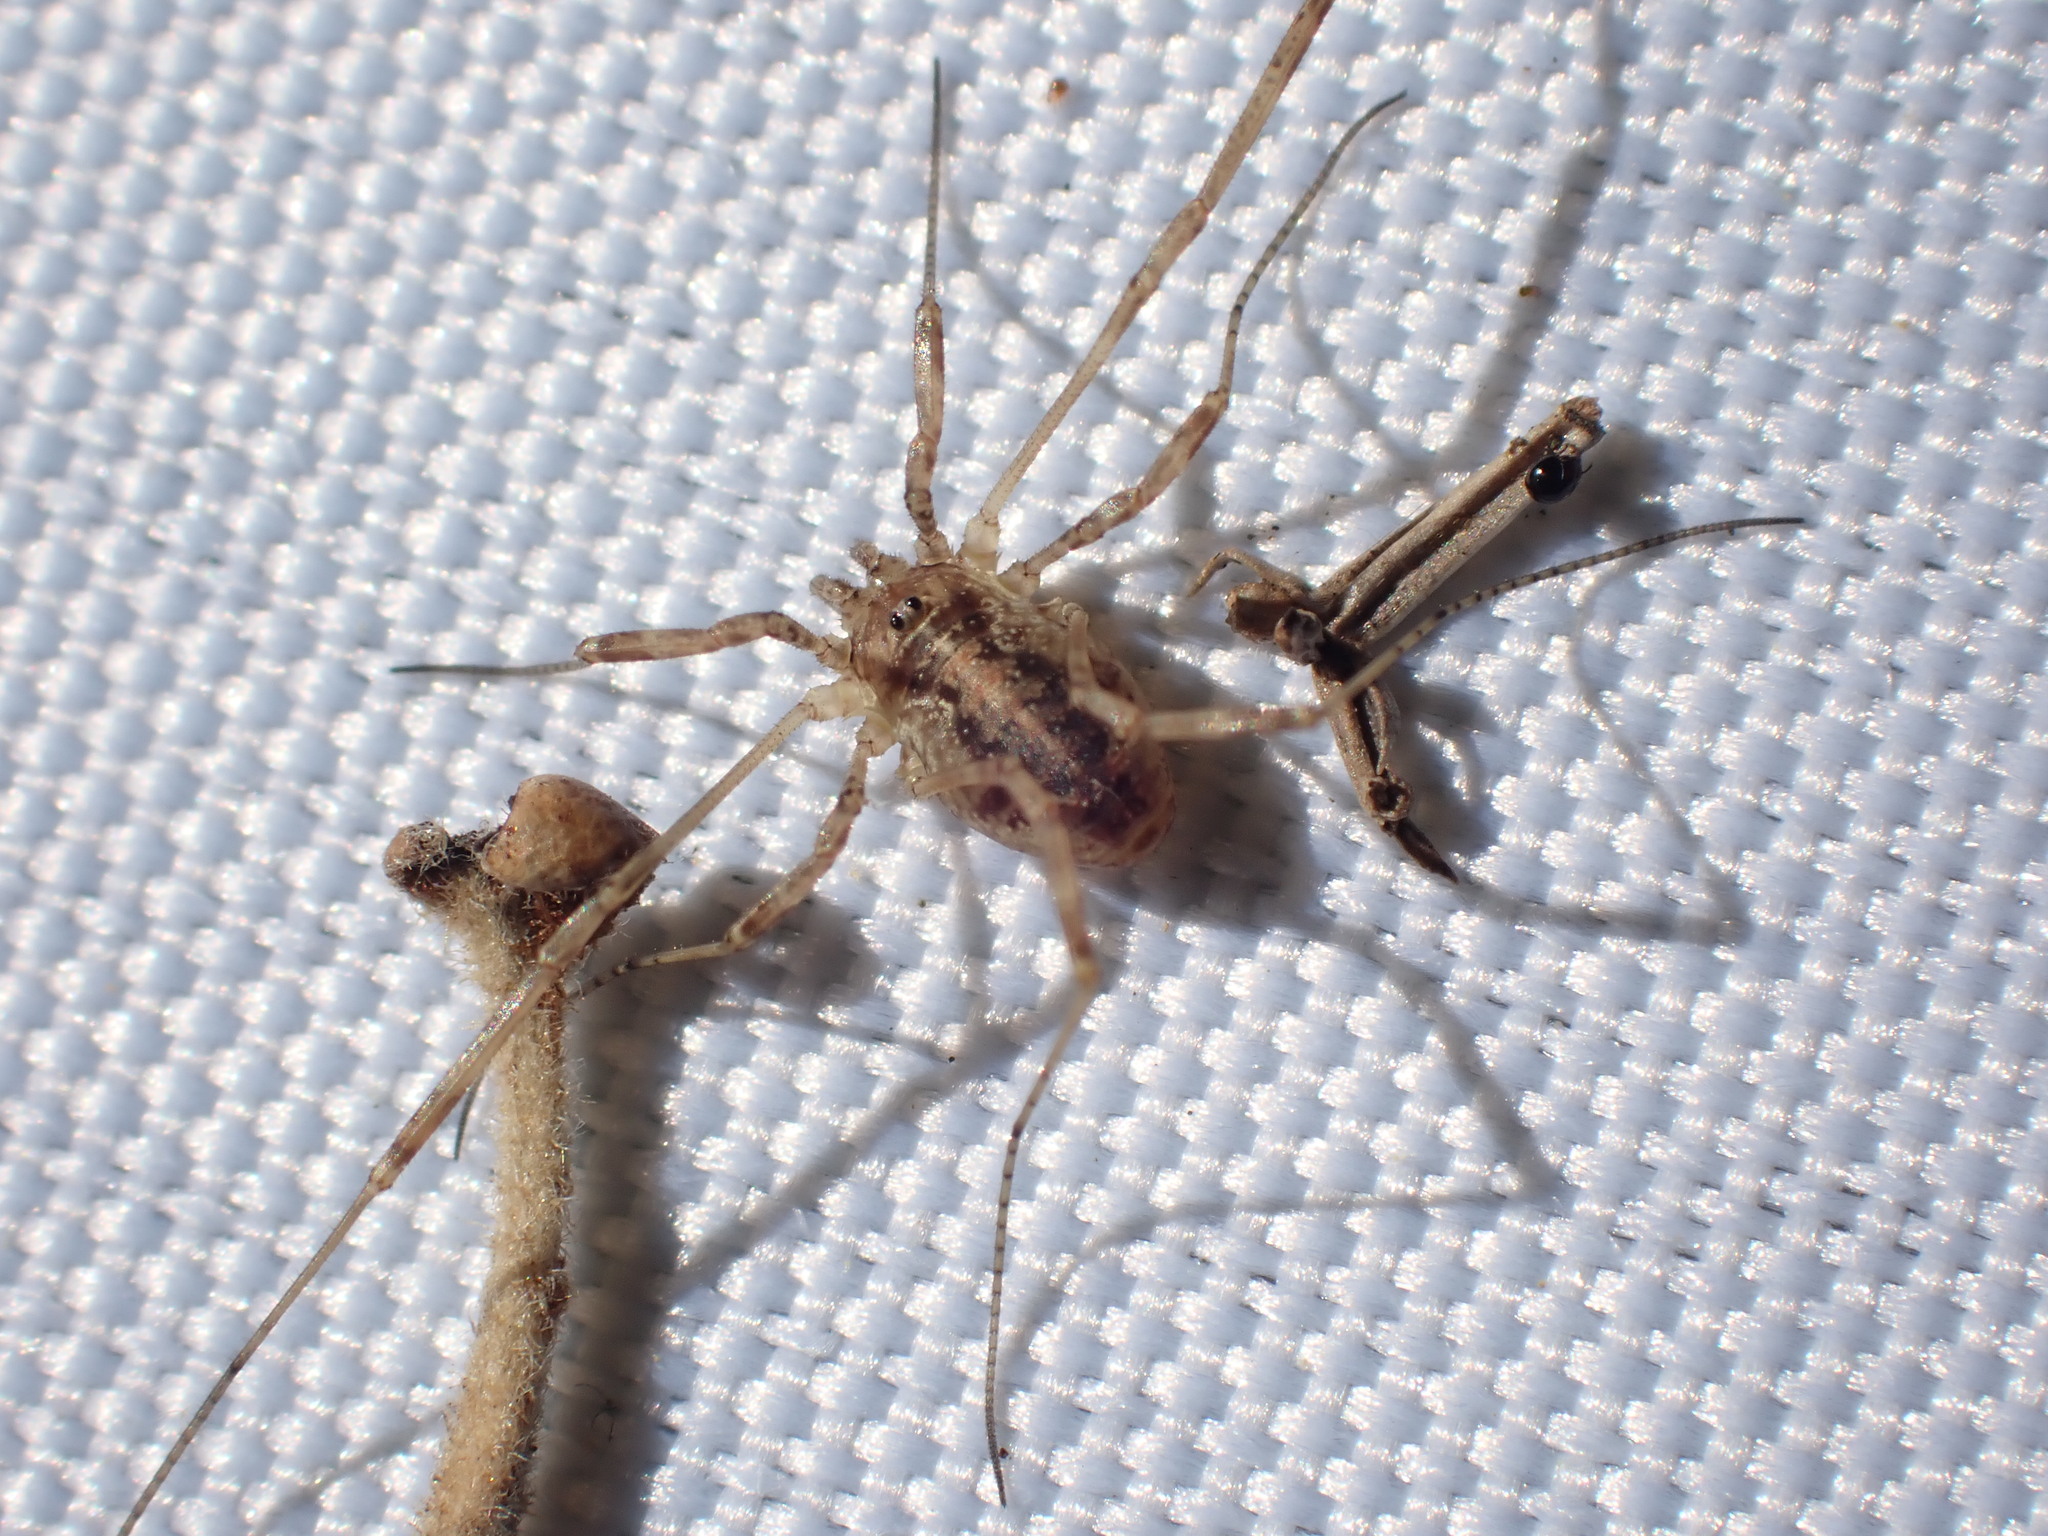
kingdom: Animalia
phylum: Arthropoda
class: Arachnida
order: Opiliones
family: Phalangiidae
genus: Paroligolophus
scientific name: Paroligolophus agrestis
